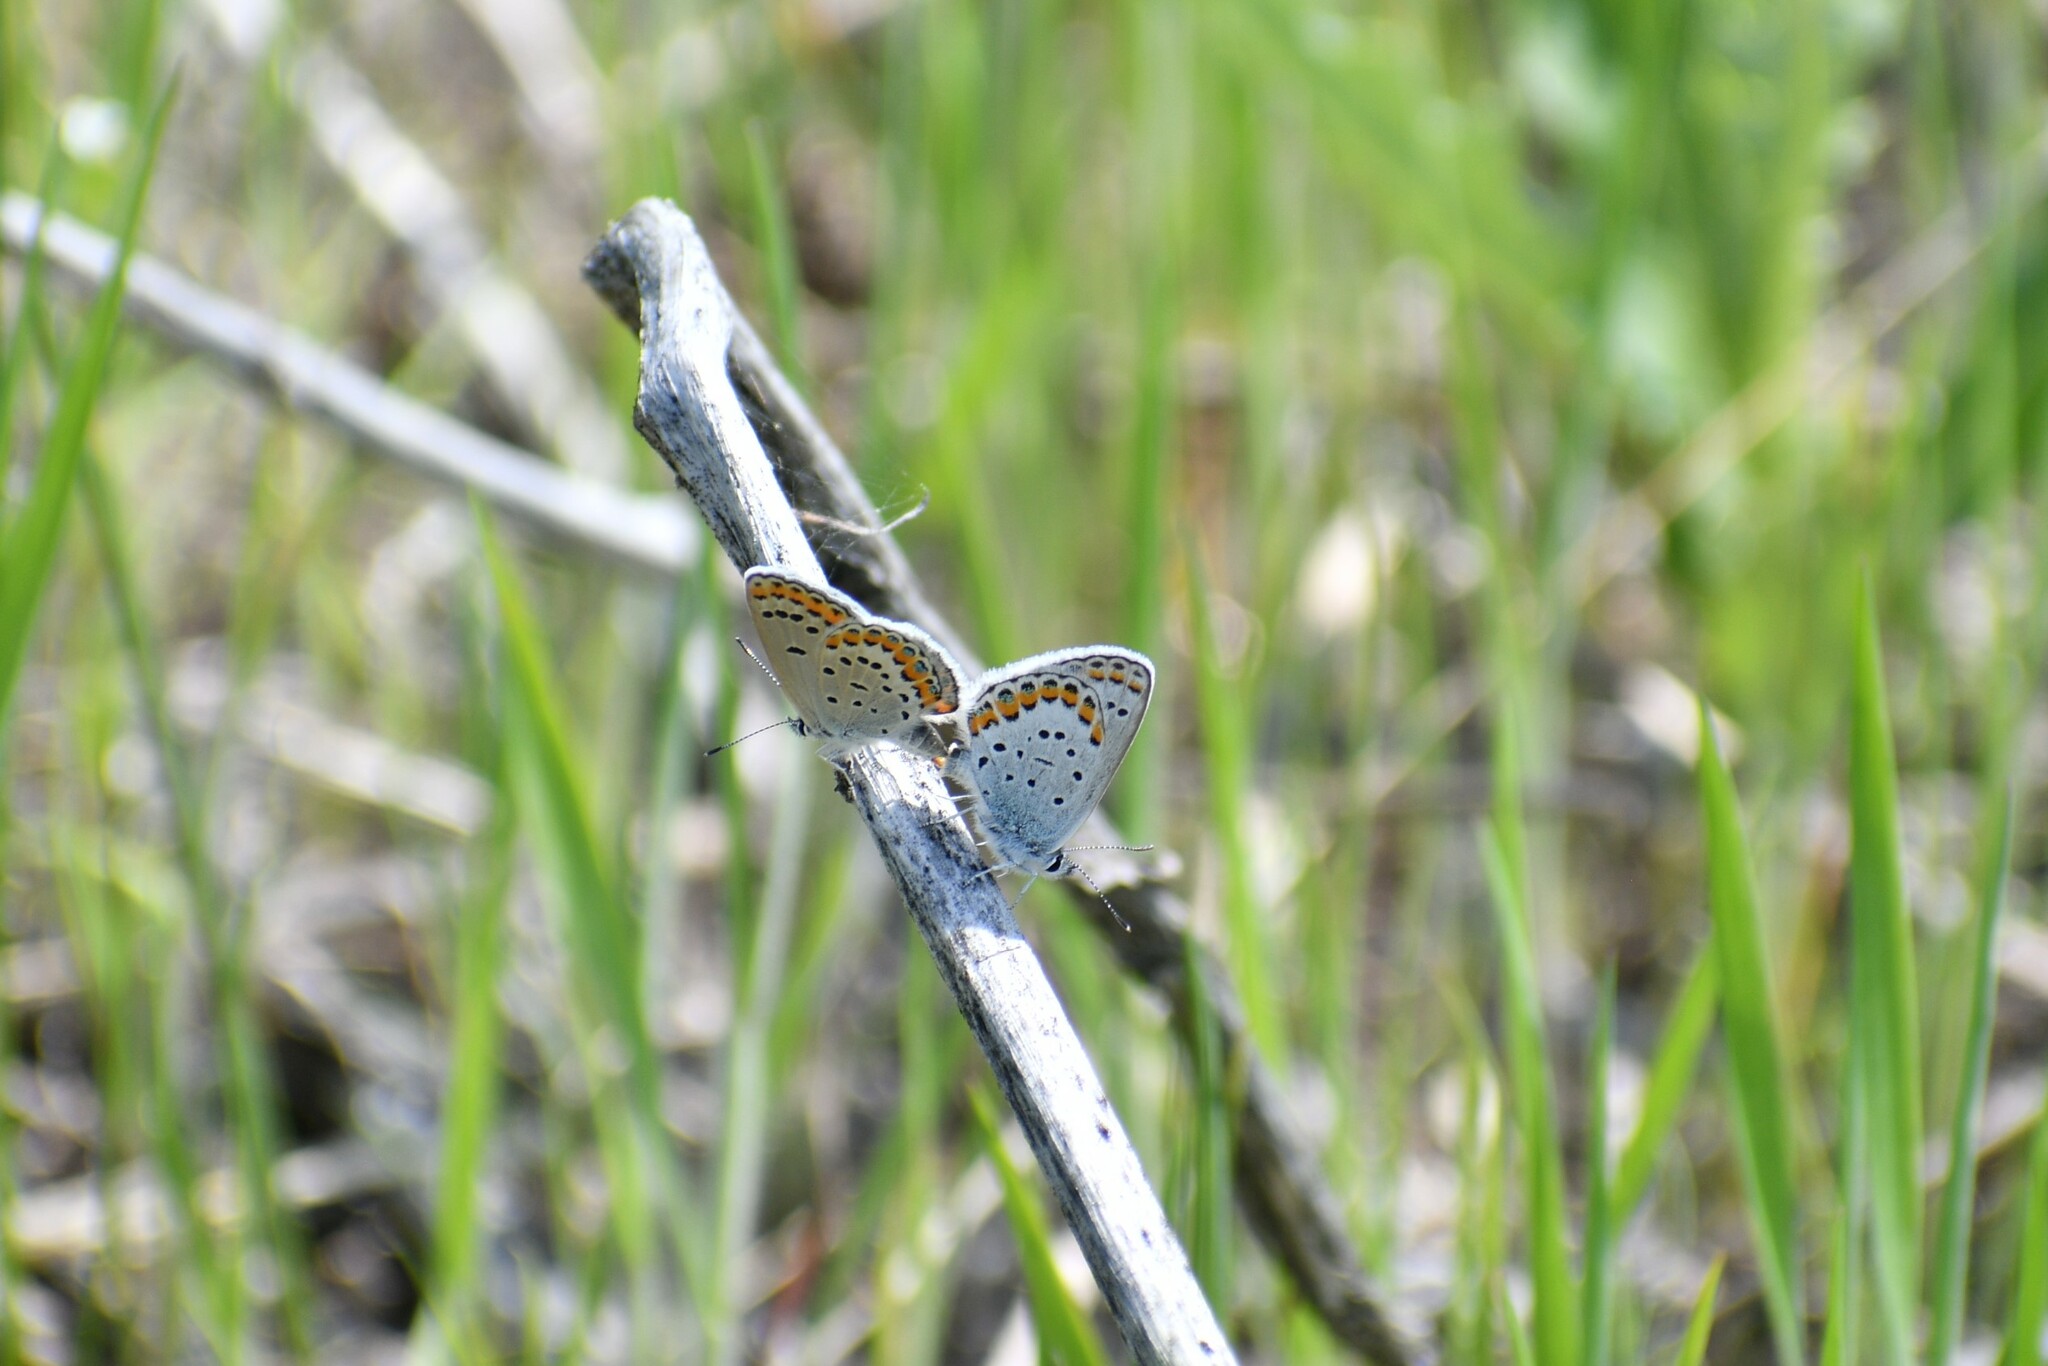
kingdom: Animalia
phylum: Arthropoda
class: Insecta
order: Lepidoptera
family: Lycaenidae
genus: Lycaeides
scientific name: Lycaeides melissa
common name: Melissa blue
